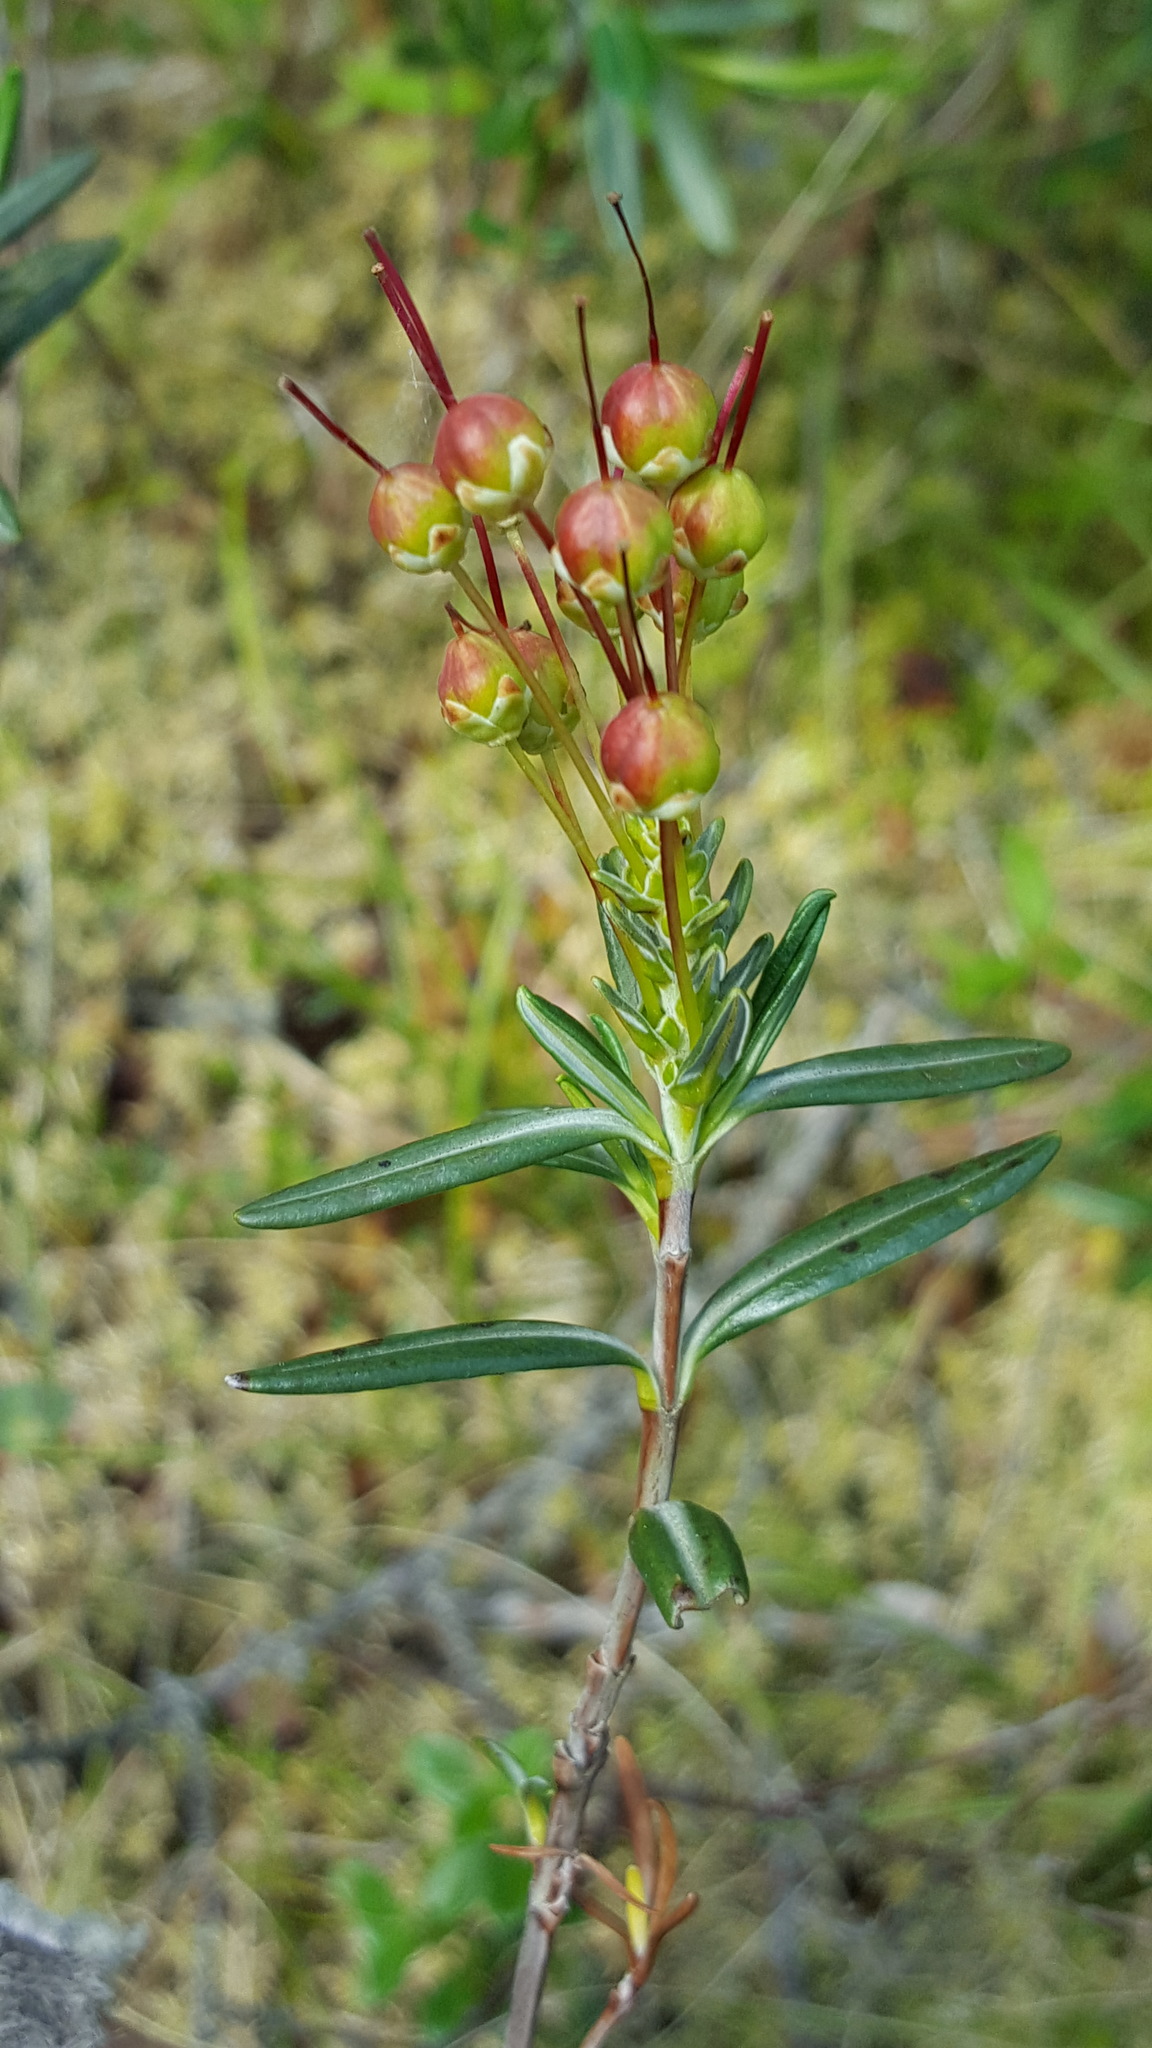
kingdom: Plantae
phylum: Tracheophyta
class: Magnoliopsida
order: Ericales
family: Ericaceae
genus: Kalmia
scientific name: Kalmia polifolia
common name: Bog-laurel
